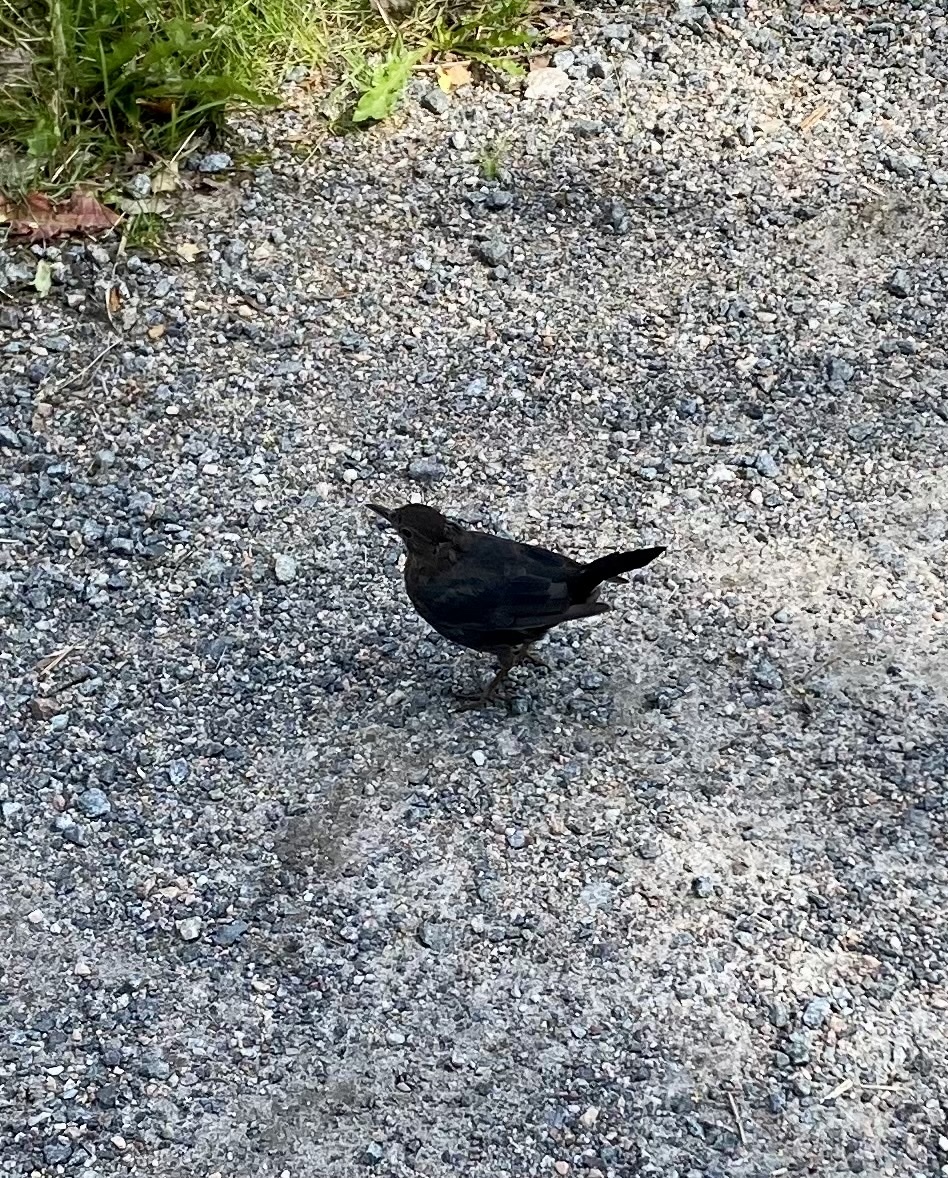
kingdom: Animalia
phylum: Chordata
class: Aves
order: Passeriformes
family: Turdidae
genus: Turdus
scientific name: Turdus merula
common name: Common blackbird
